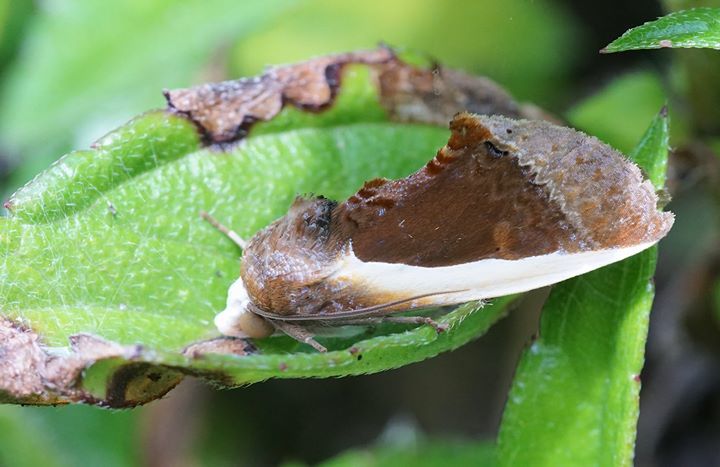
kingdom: Animalia
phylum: Arthropoda
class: Insecta
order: Lepidoptera
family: Erebidae
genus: Gonodonta
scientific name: Gonodonta nutrix
